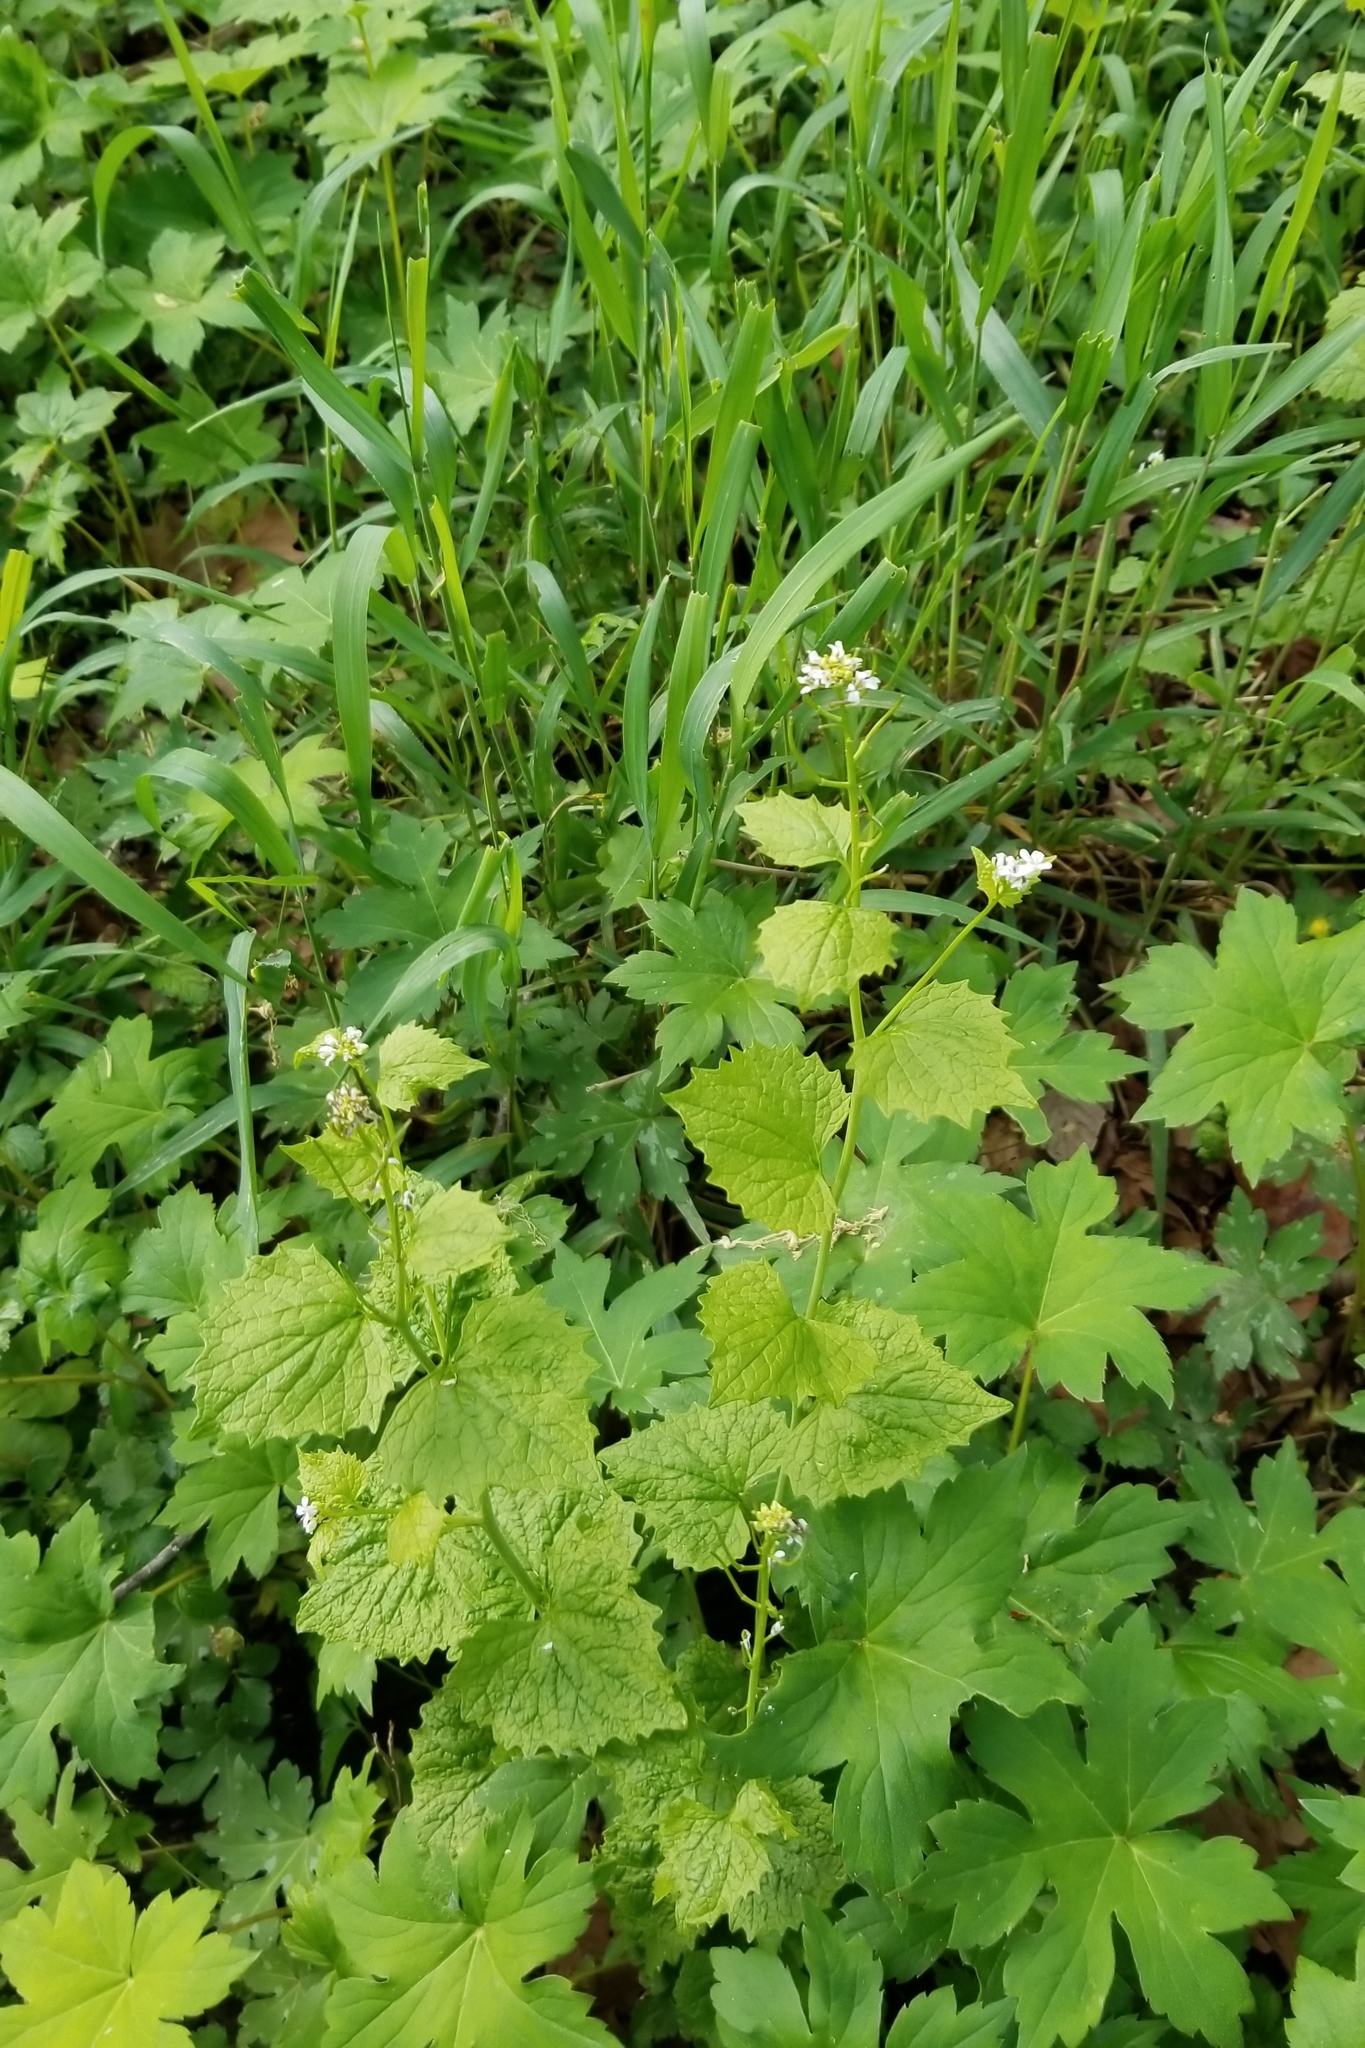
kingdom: Plantae
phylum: Tracheophyta
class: Magnoliopsida
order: Brassicales
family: Brassicaceae
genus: Alliaria
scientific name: Alliaria petiolata
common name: Garlic mustard
